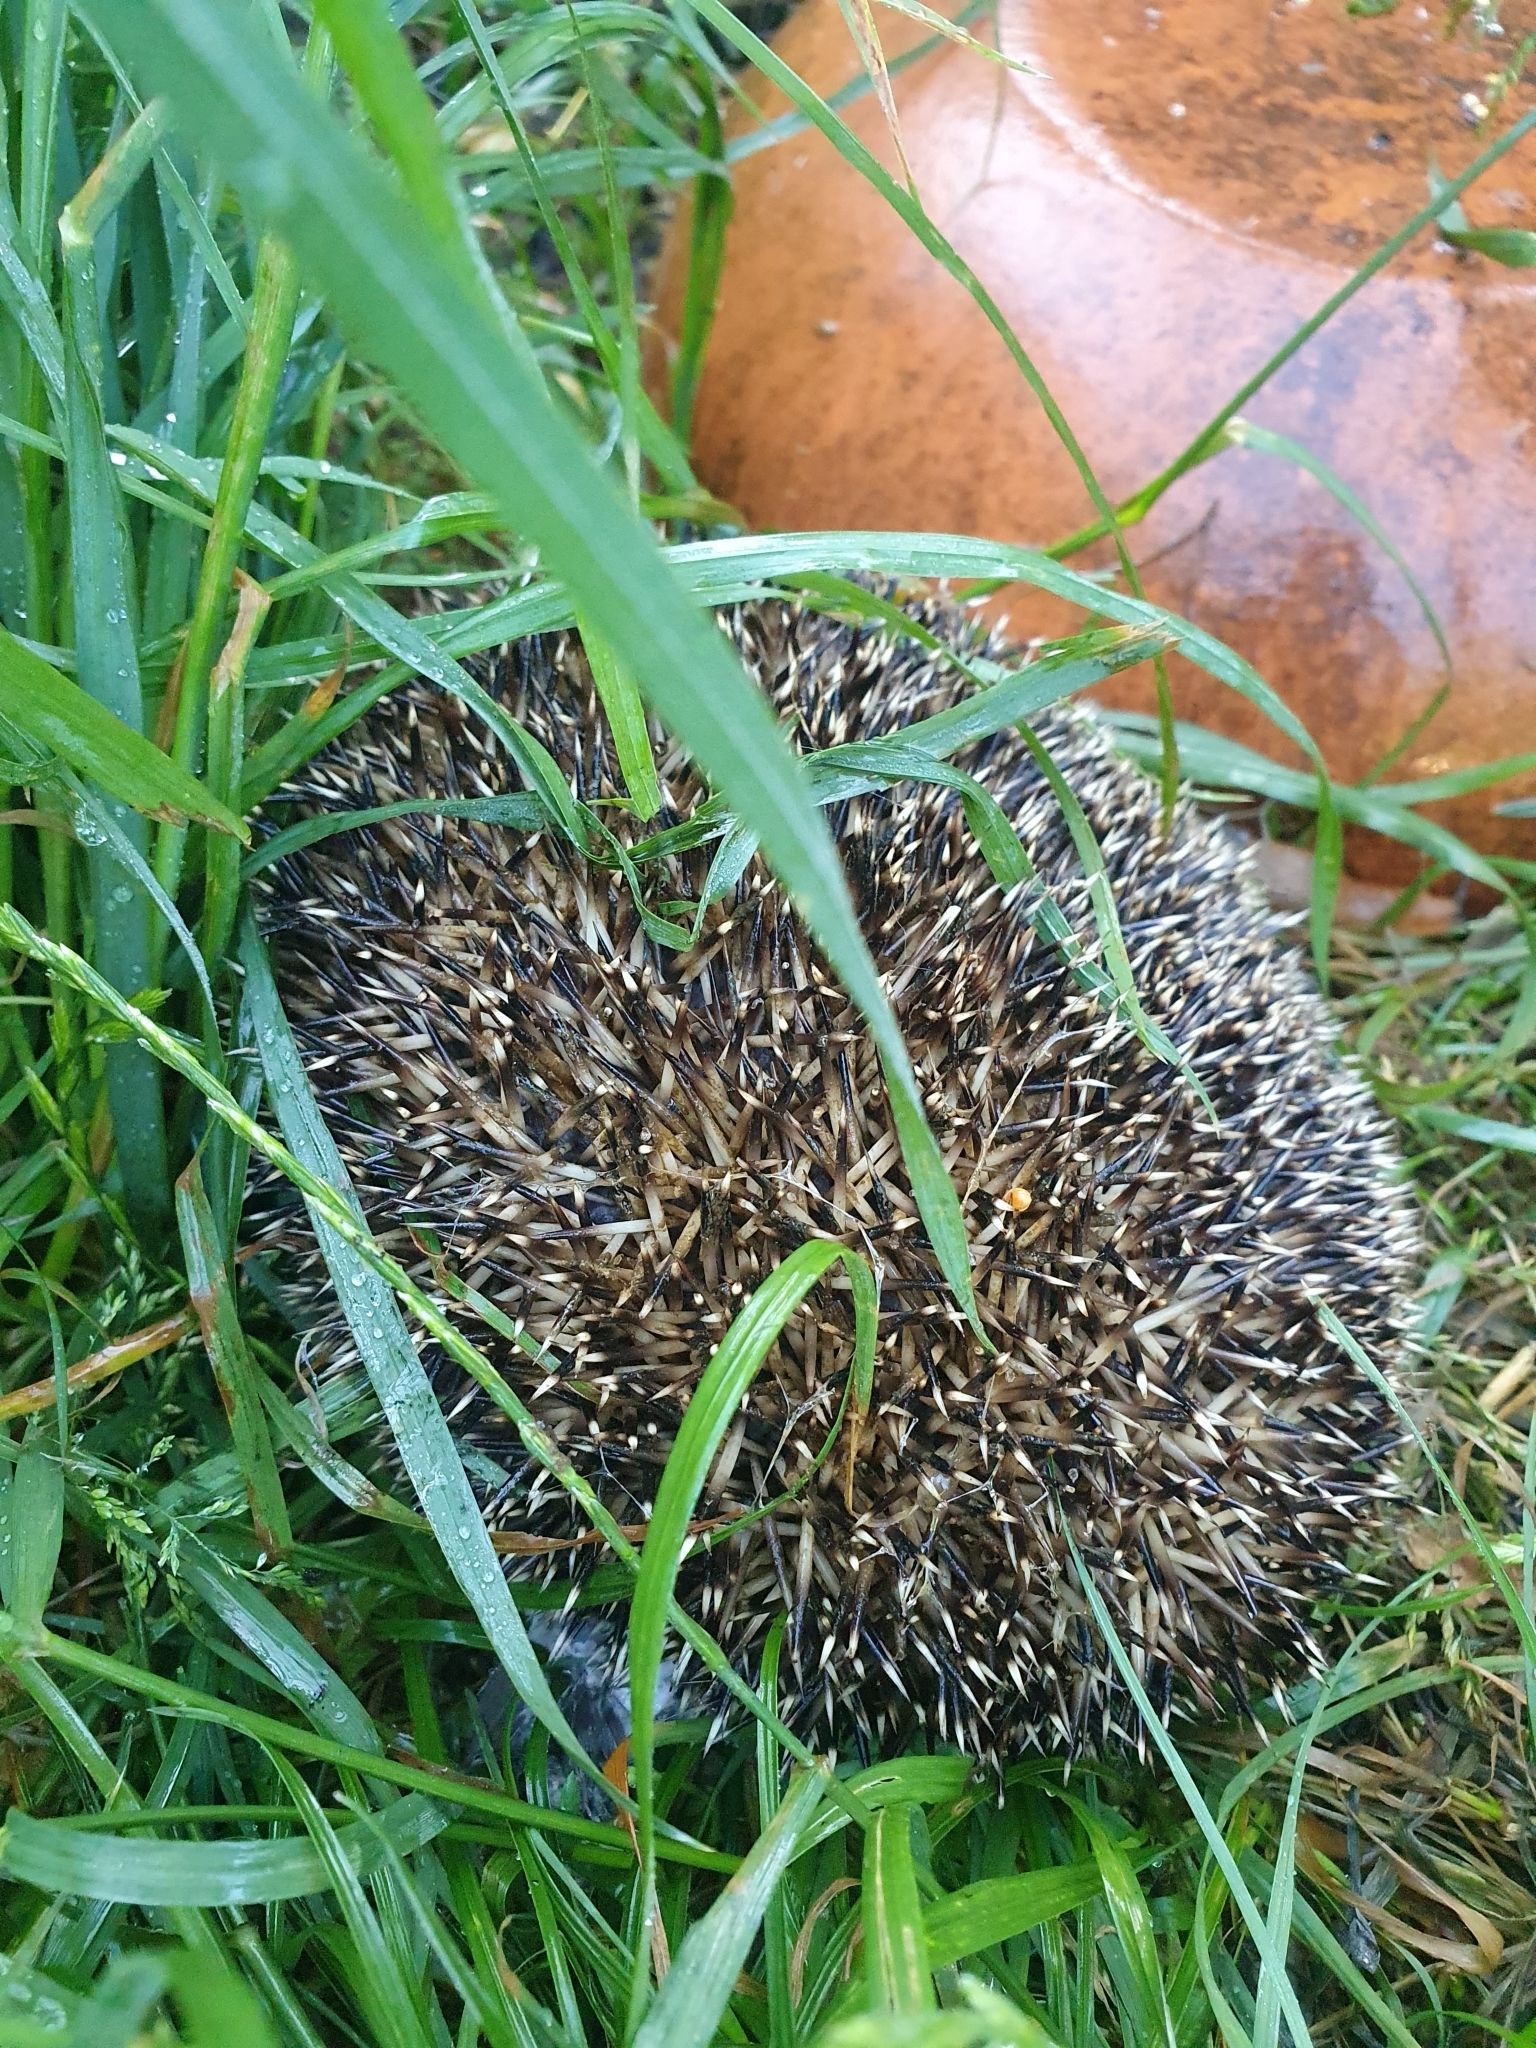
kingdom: Animalia
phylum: Chordata
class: Mammalia
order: Erinaceomorpha
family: Erinaceidae
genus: Erinaceus
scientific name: Erinaceus europaeus
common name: West european hedgehog
